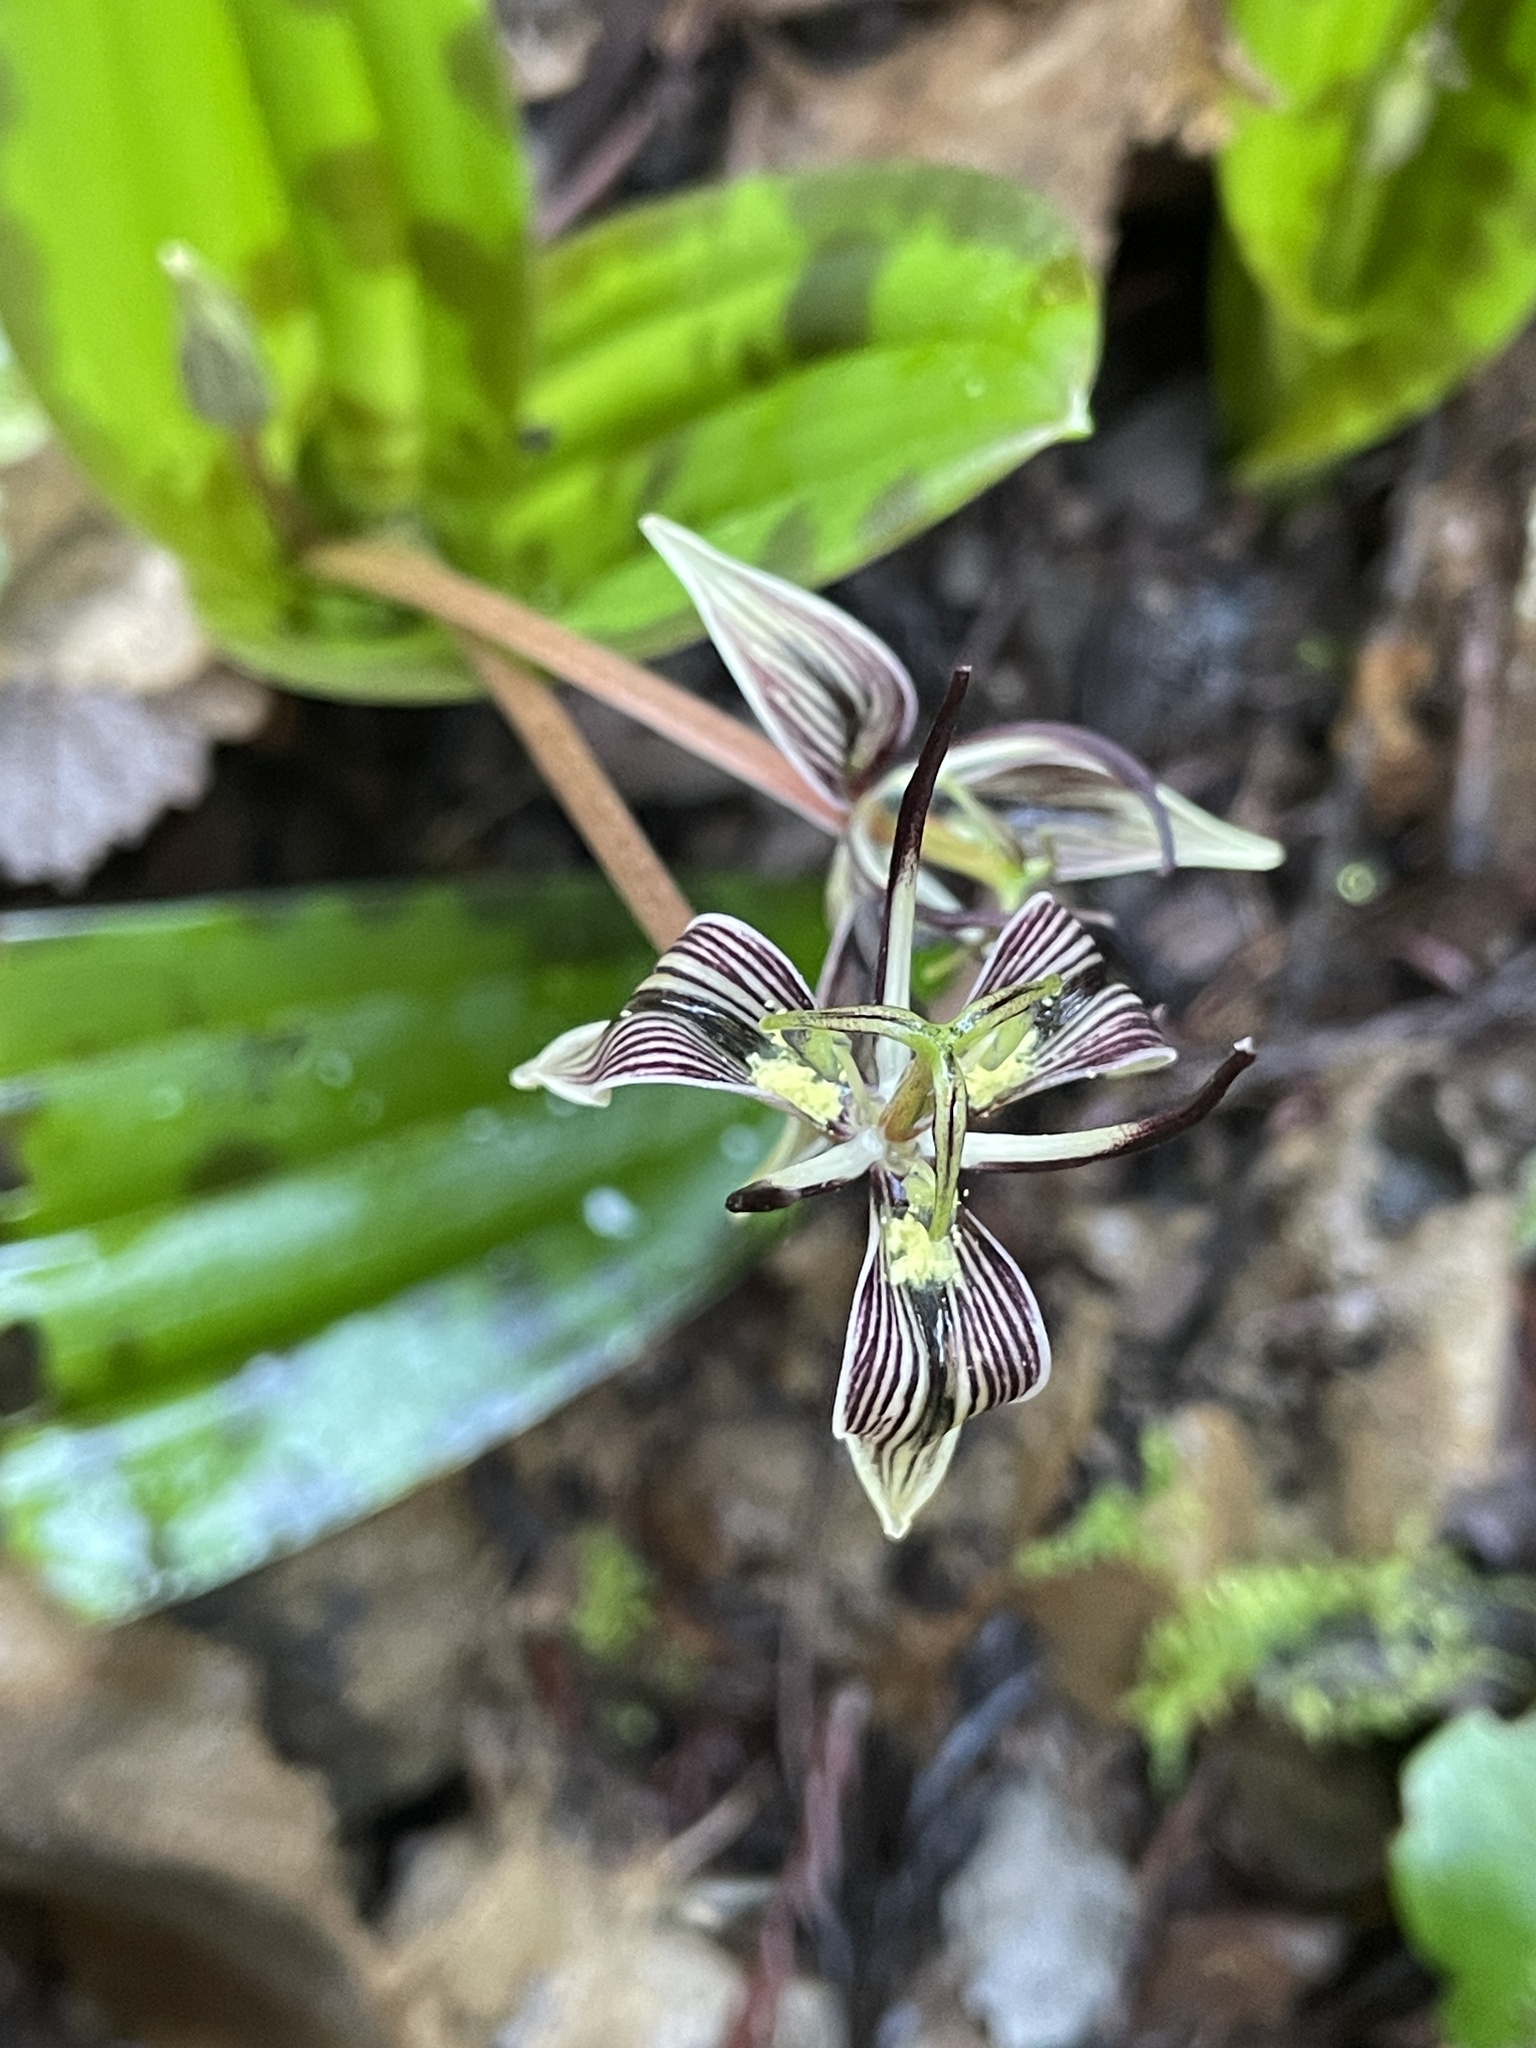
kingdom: Plantae
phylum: Tracheophyta
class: Liliopsida
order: Liliales
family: Liliaceae
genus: Scoliopus
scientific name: Scoliopus bigelovii
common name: Foetid adder's-tongue
